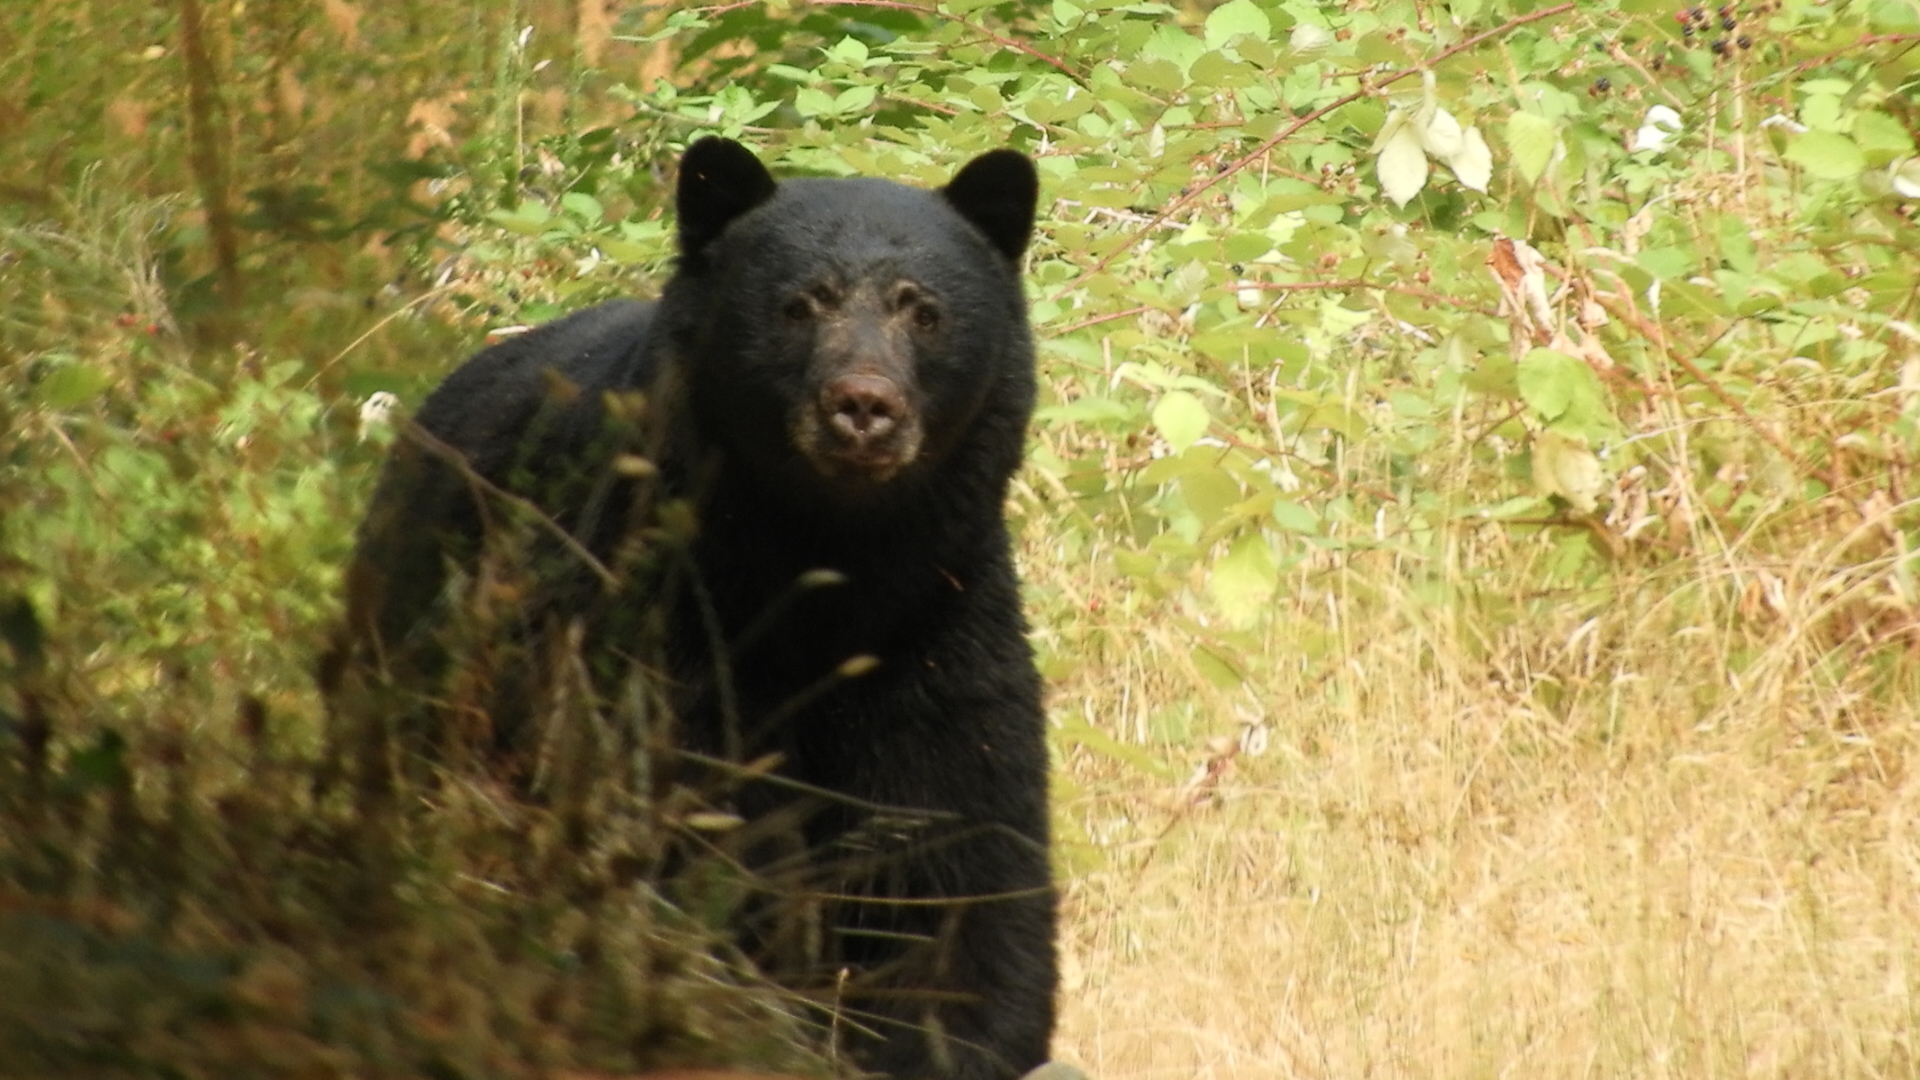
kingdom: Animalia
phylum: Chordata
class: Mammalia
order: Carnivora
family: Ursidae
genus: Ursus
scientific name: Ursus americanus
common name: American black bear
